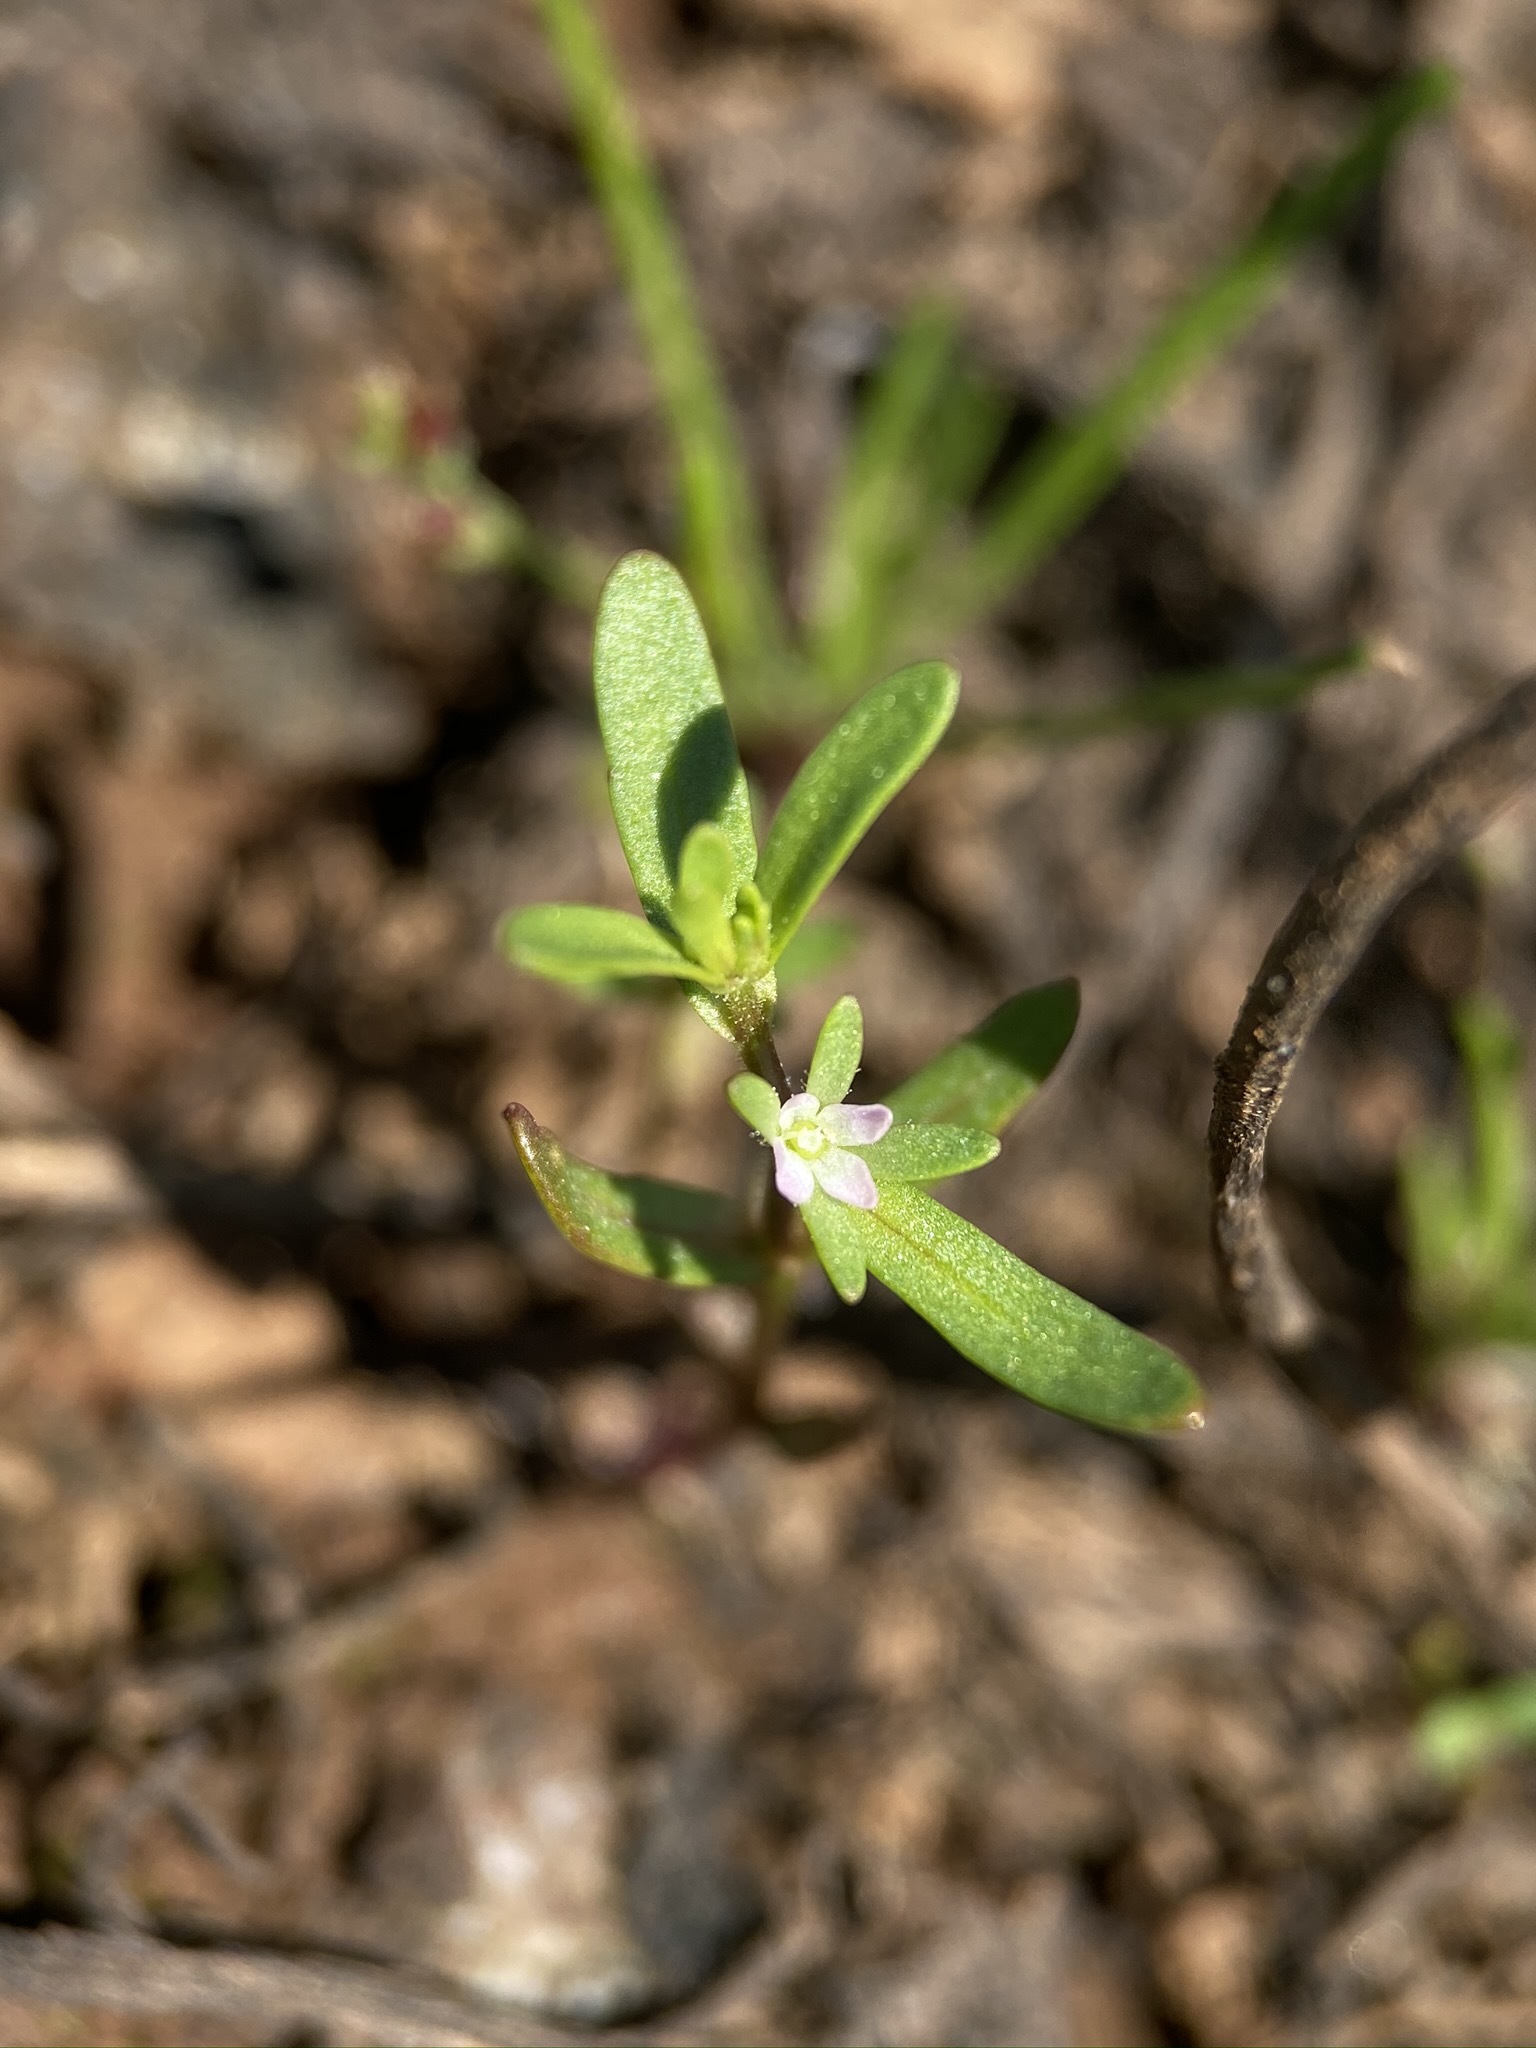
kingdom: Plantae
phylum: Tracheophyta
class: Magnoliopsida
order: Lamiales
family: Plantaginaceae
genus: Veronica
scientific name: Veronica peregrina
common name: Neckweed
